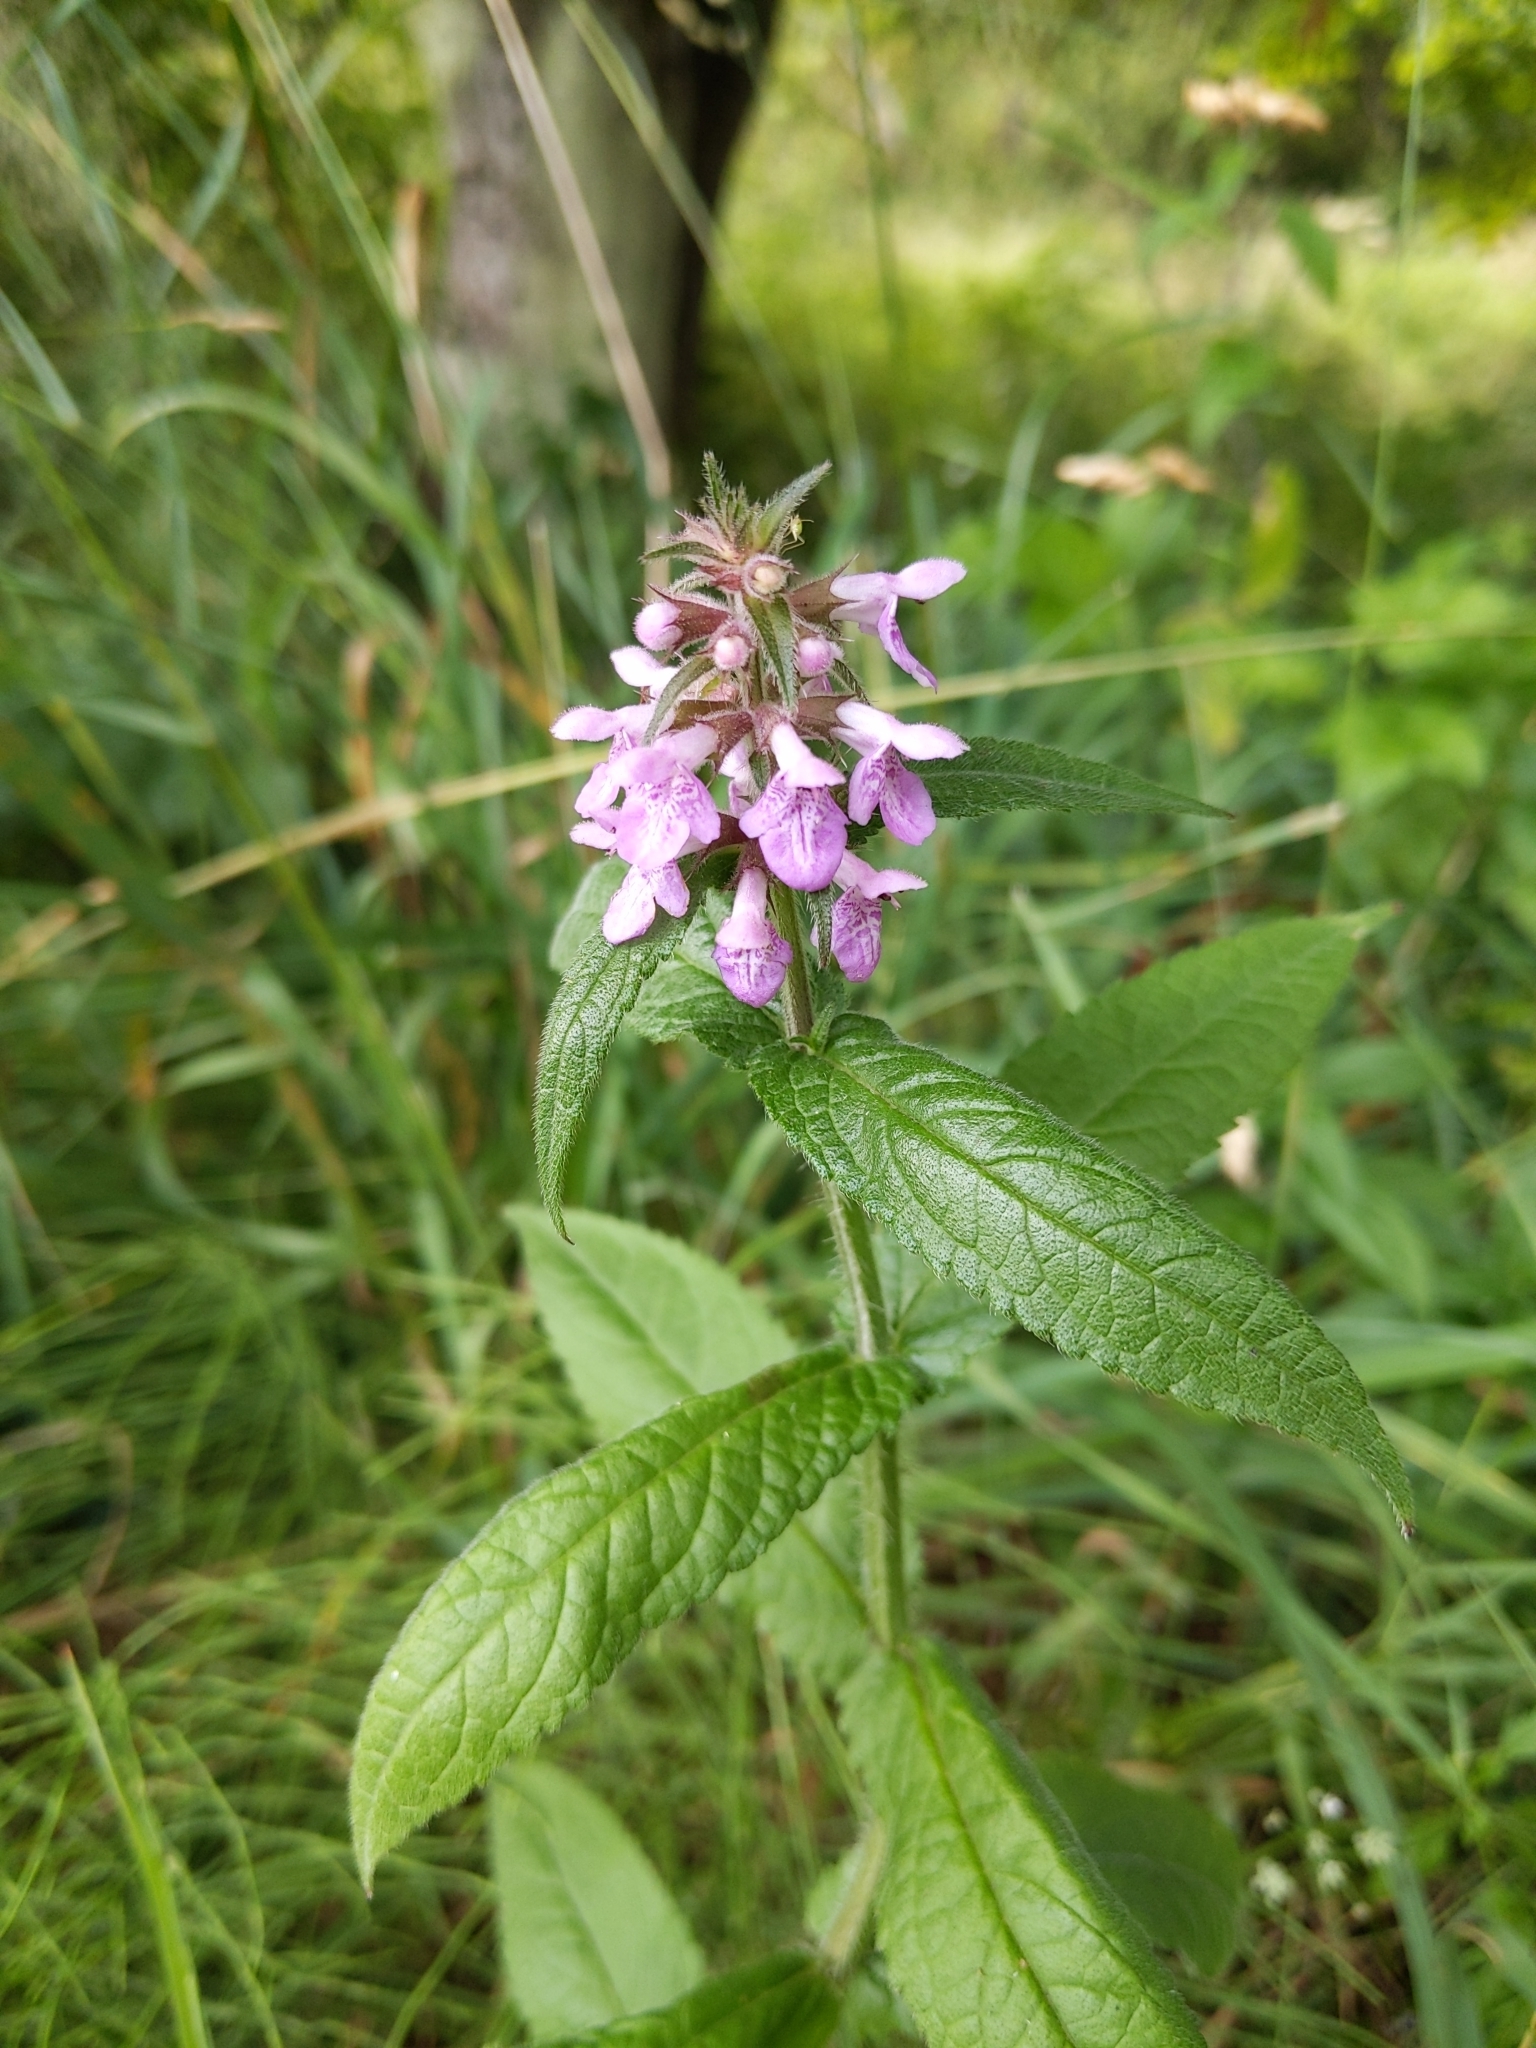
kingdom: Plantae
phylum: Tracheophyta
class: Magnoliopsida
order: Lamiales
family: Lamiaceae
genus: Stachys
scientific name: Stachys palustris
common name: Marsh woundwort
